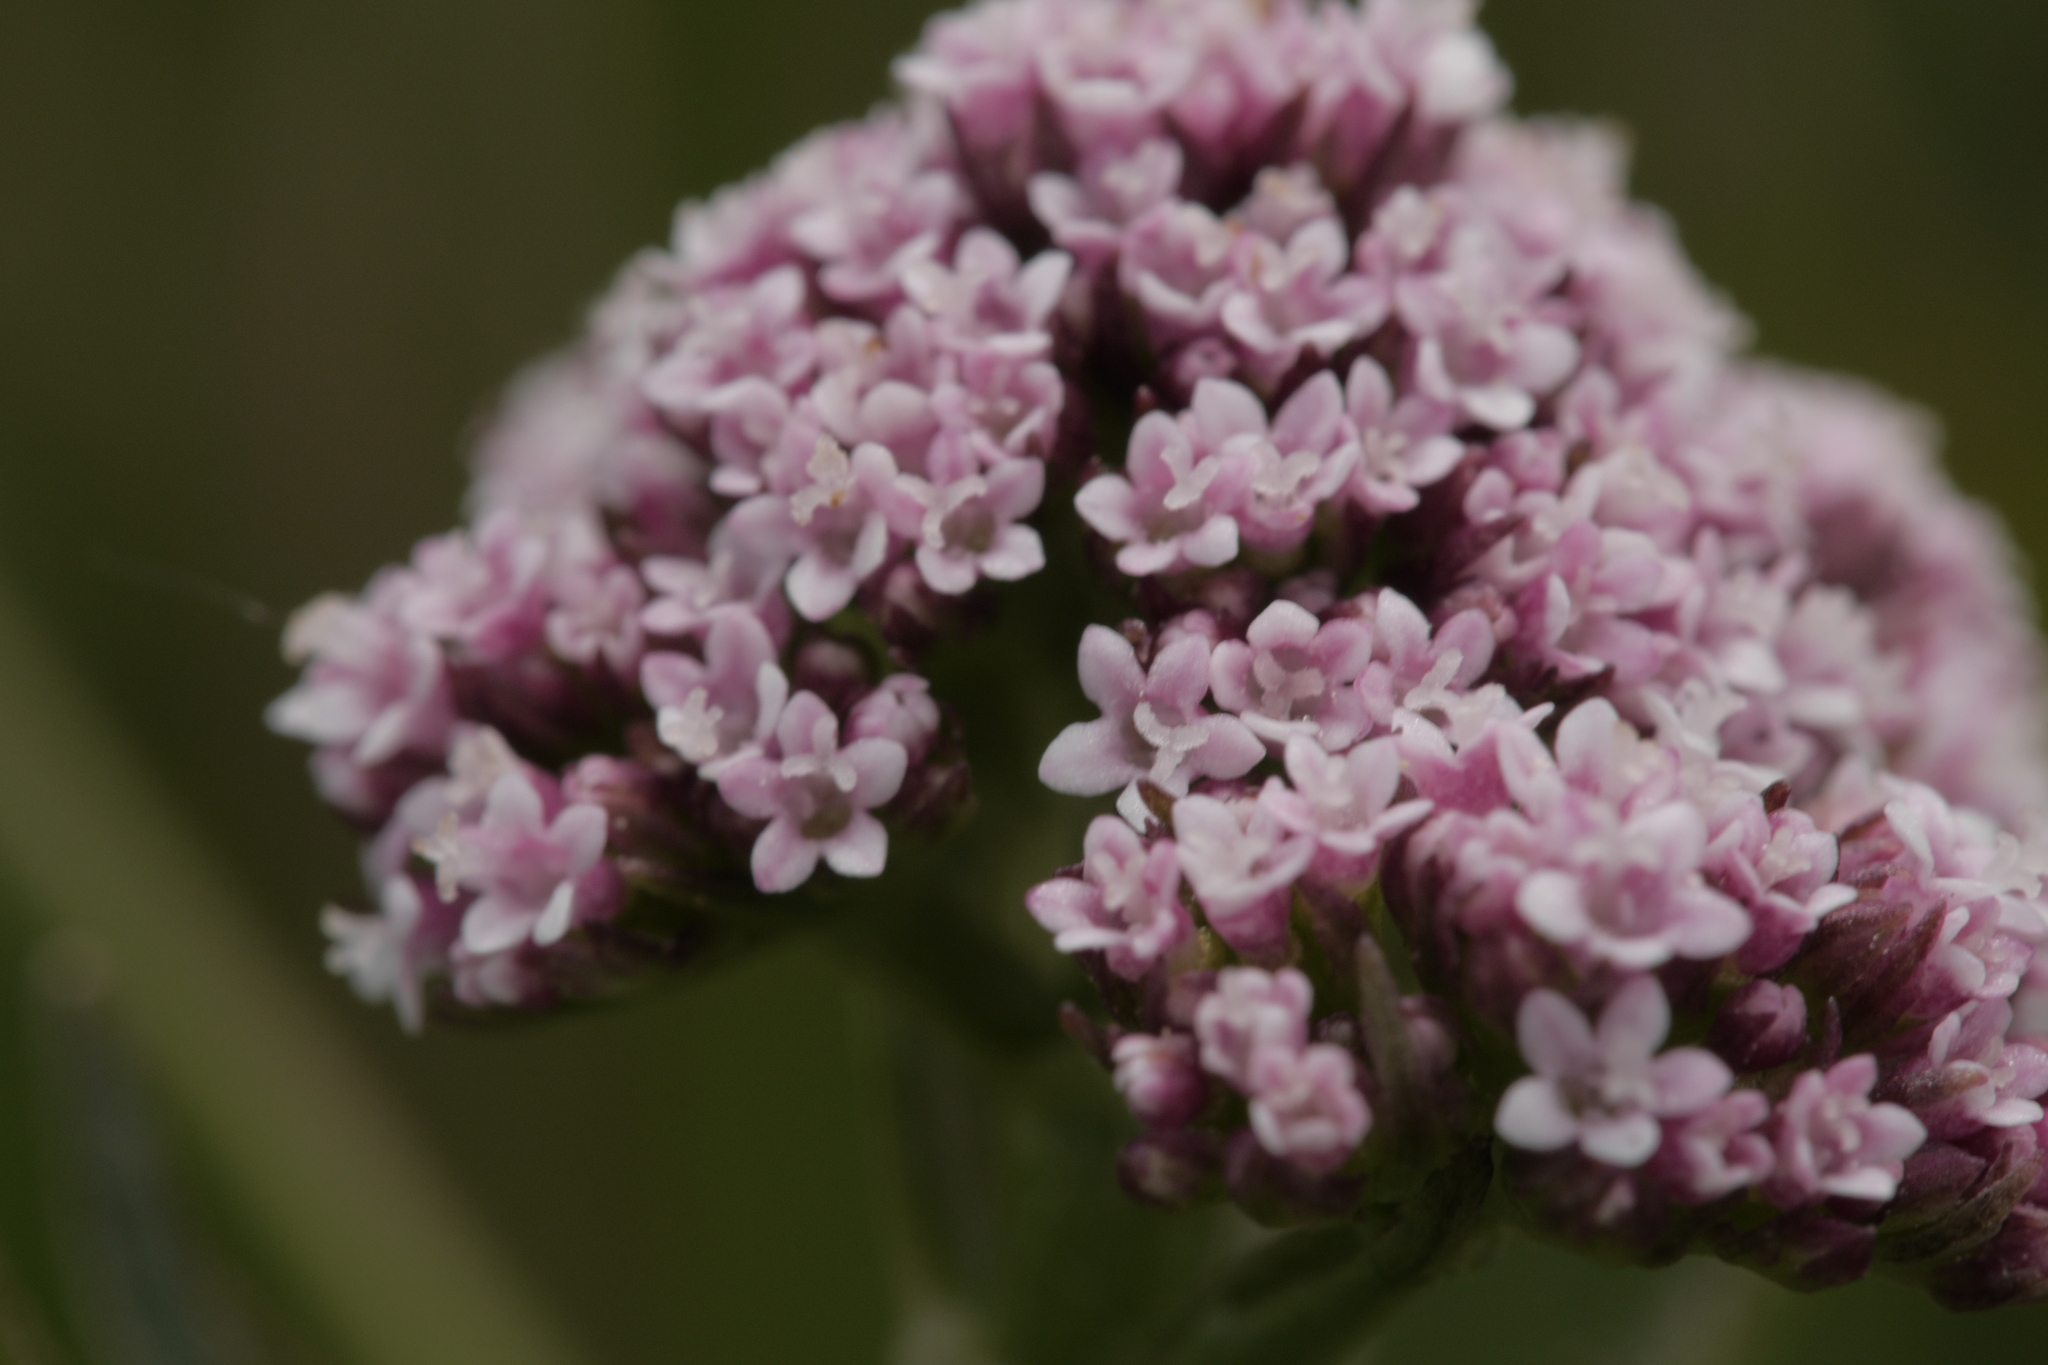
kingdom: Plantae
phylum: Tracheophyta
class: Magnoliopsida
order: Dipsacales
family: Caprifoliaceae
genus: Valeriana
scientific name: Valeriana dioica
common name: Marsh valerian
